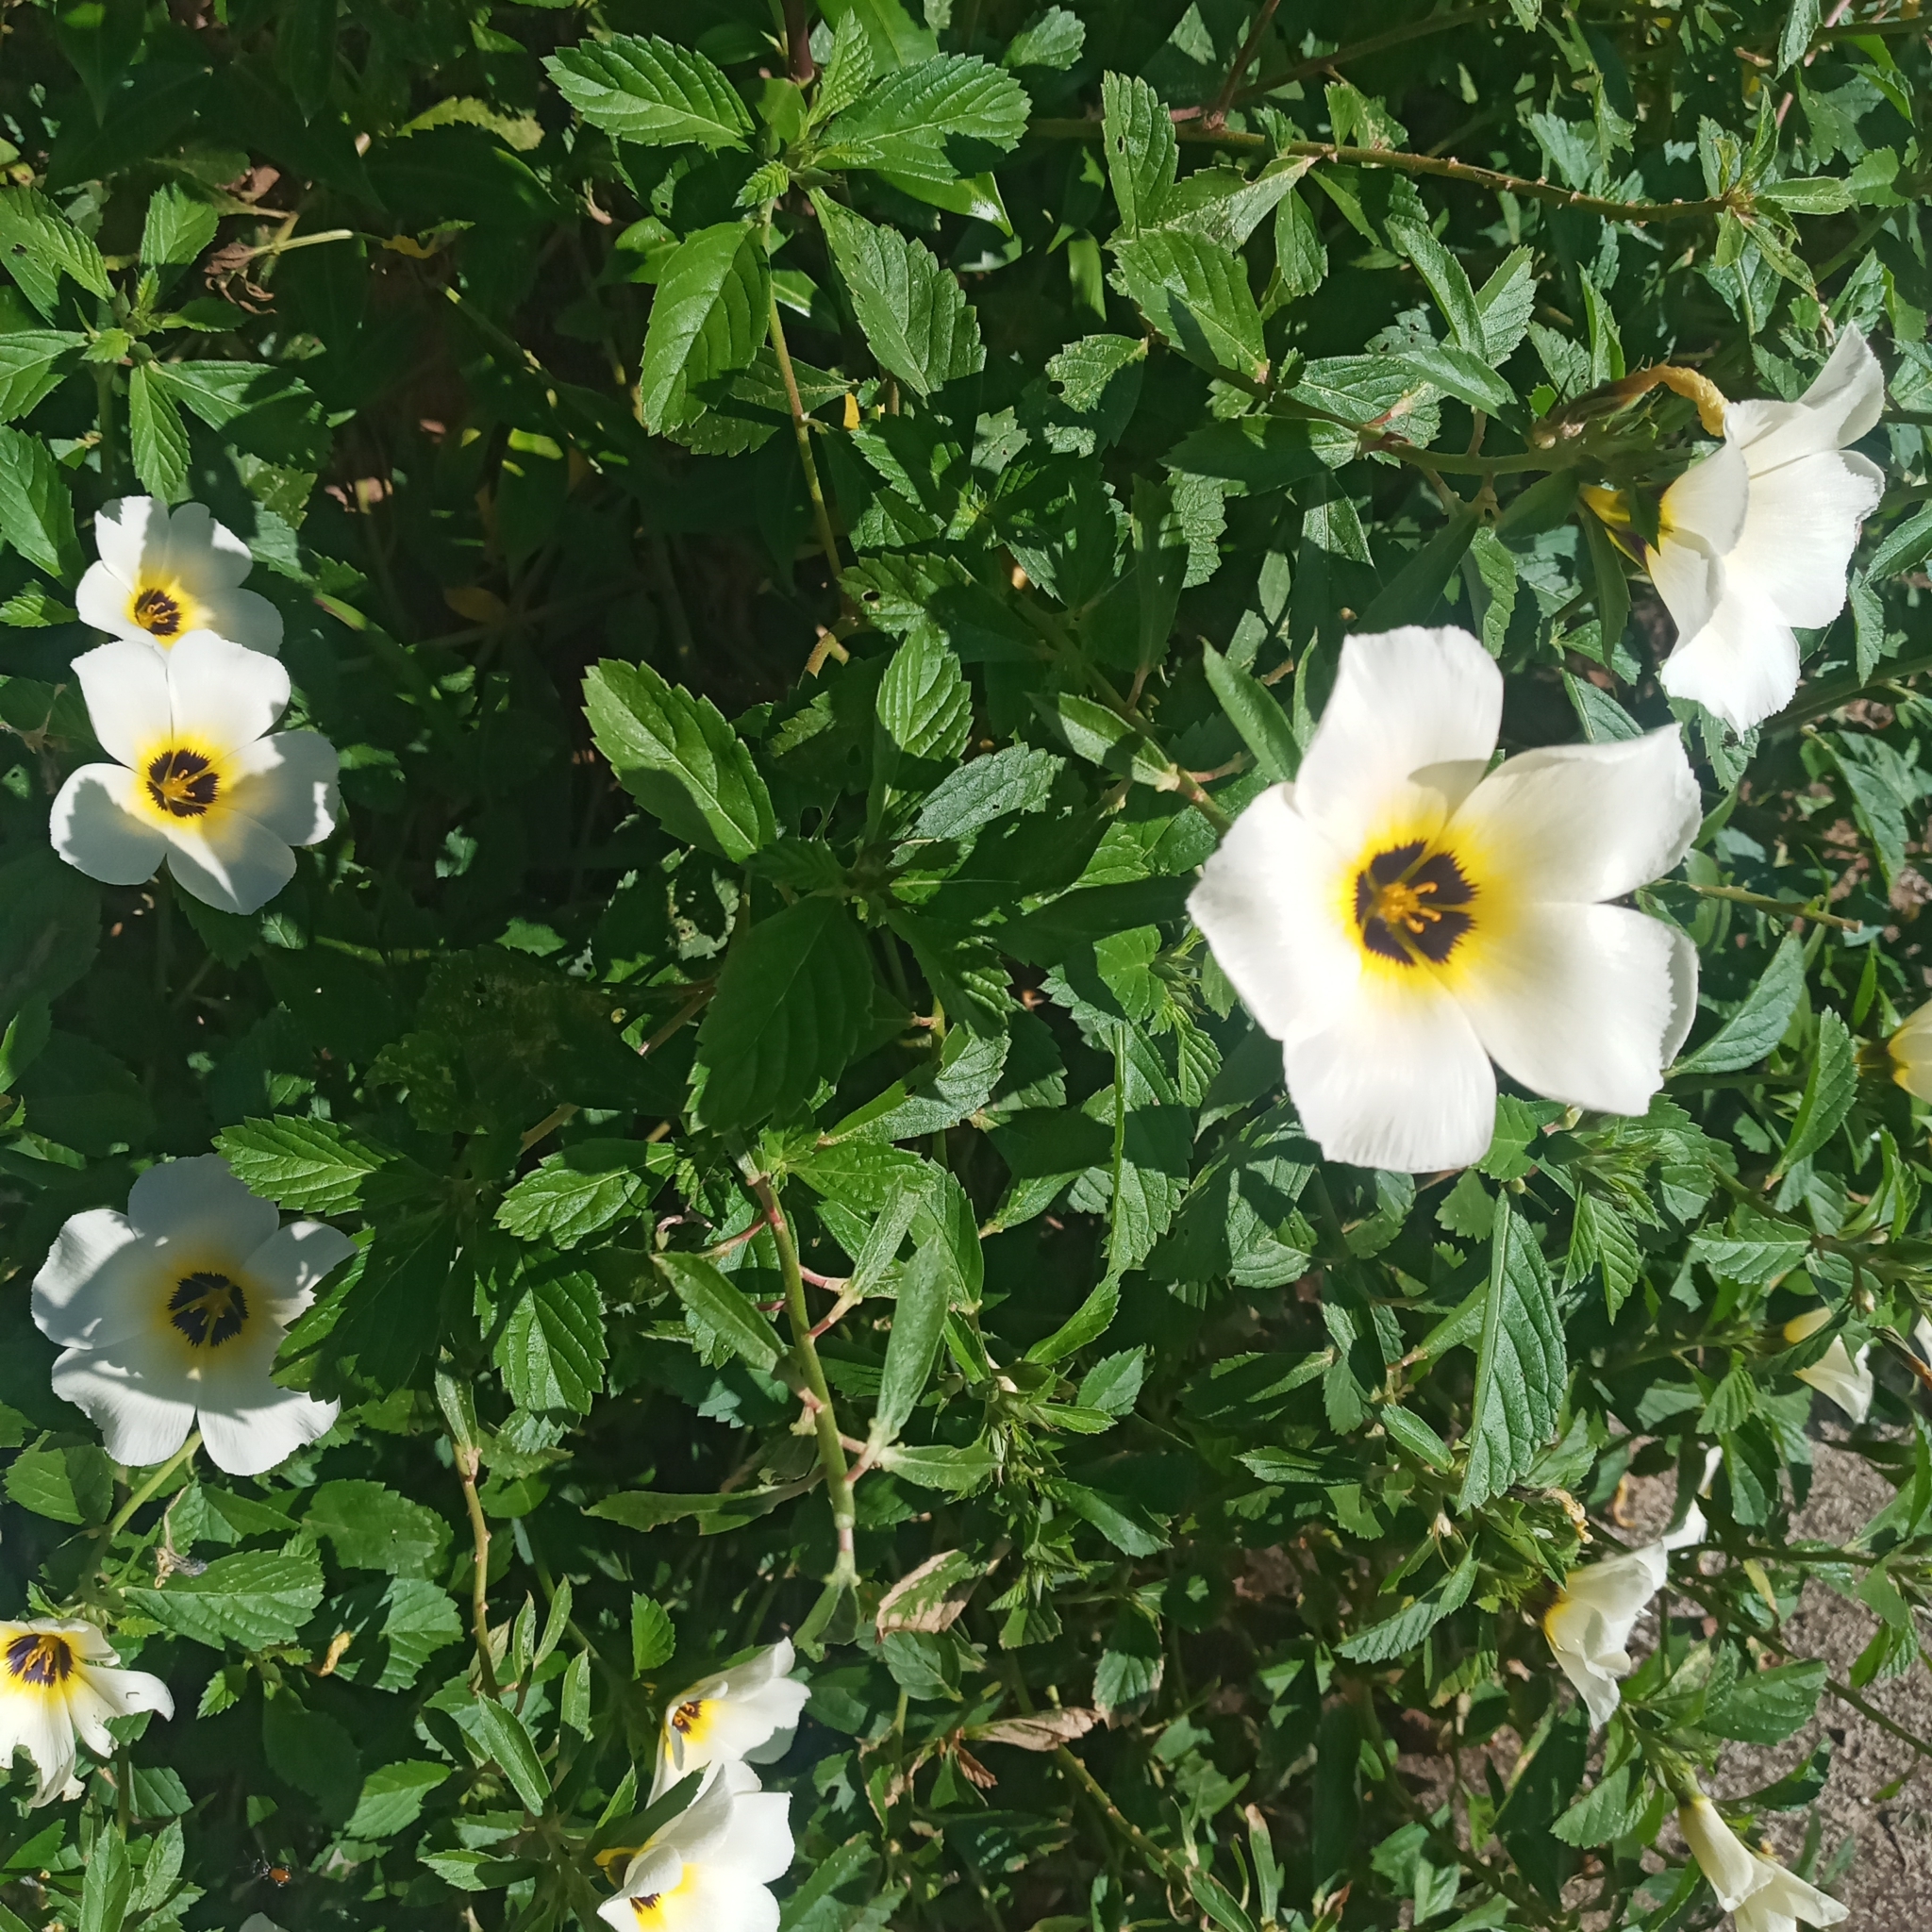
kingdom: Plantae
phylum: Tracheophyta
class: Magnoliopsida
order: Malpighiales
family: Turneraceae
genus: Turnera
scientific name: Turnera subulata
